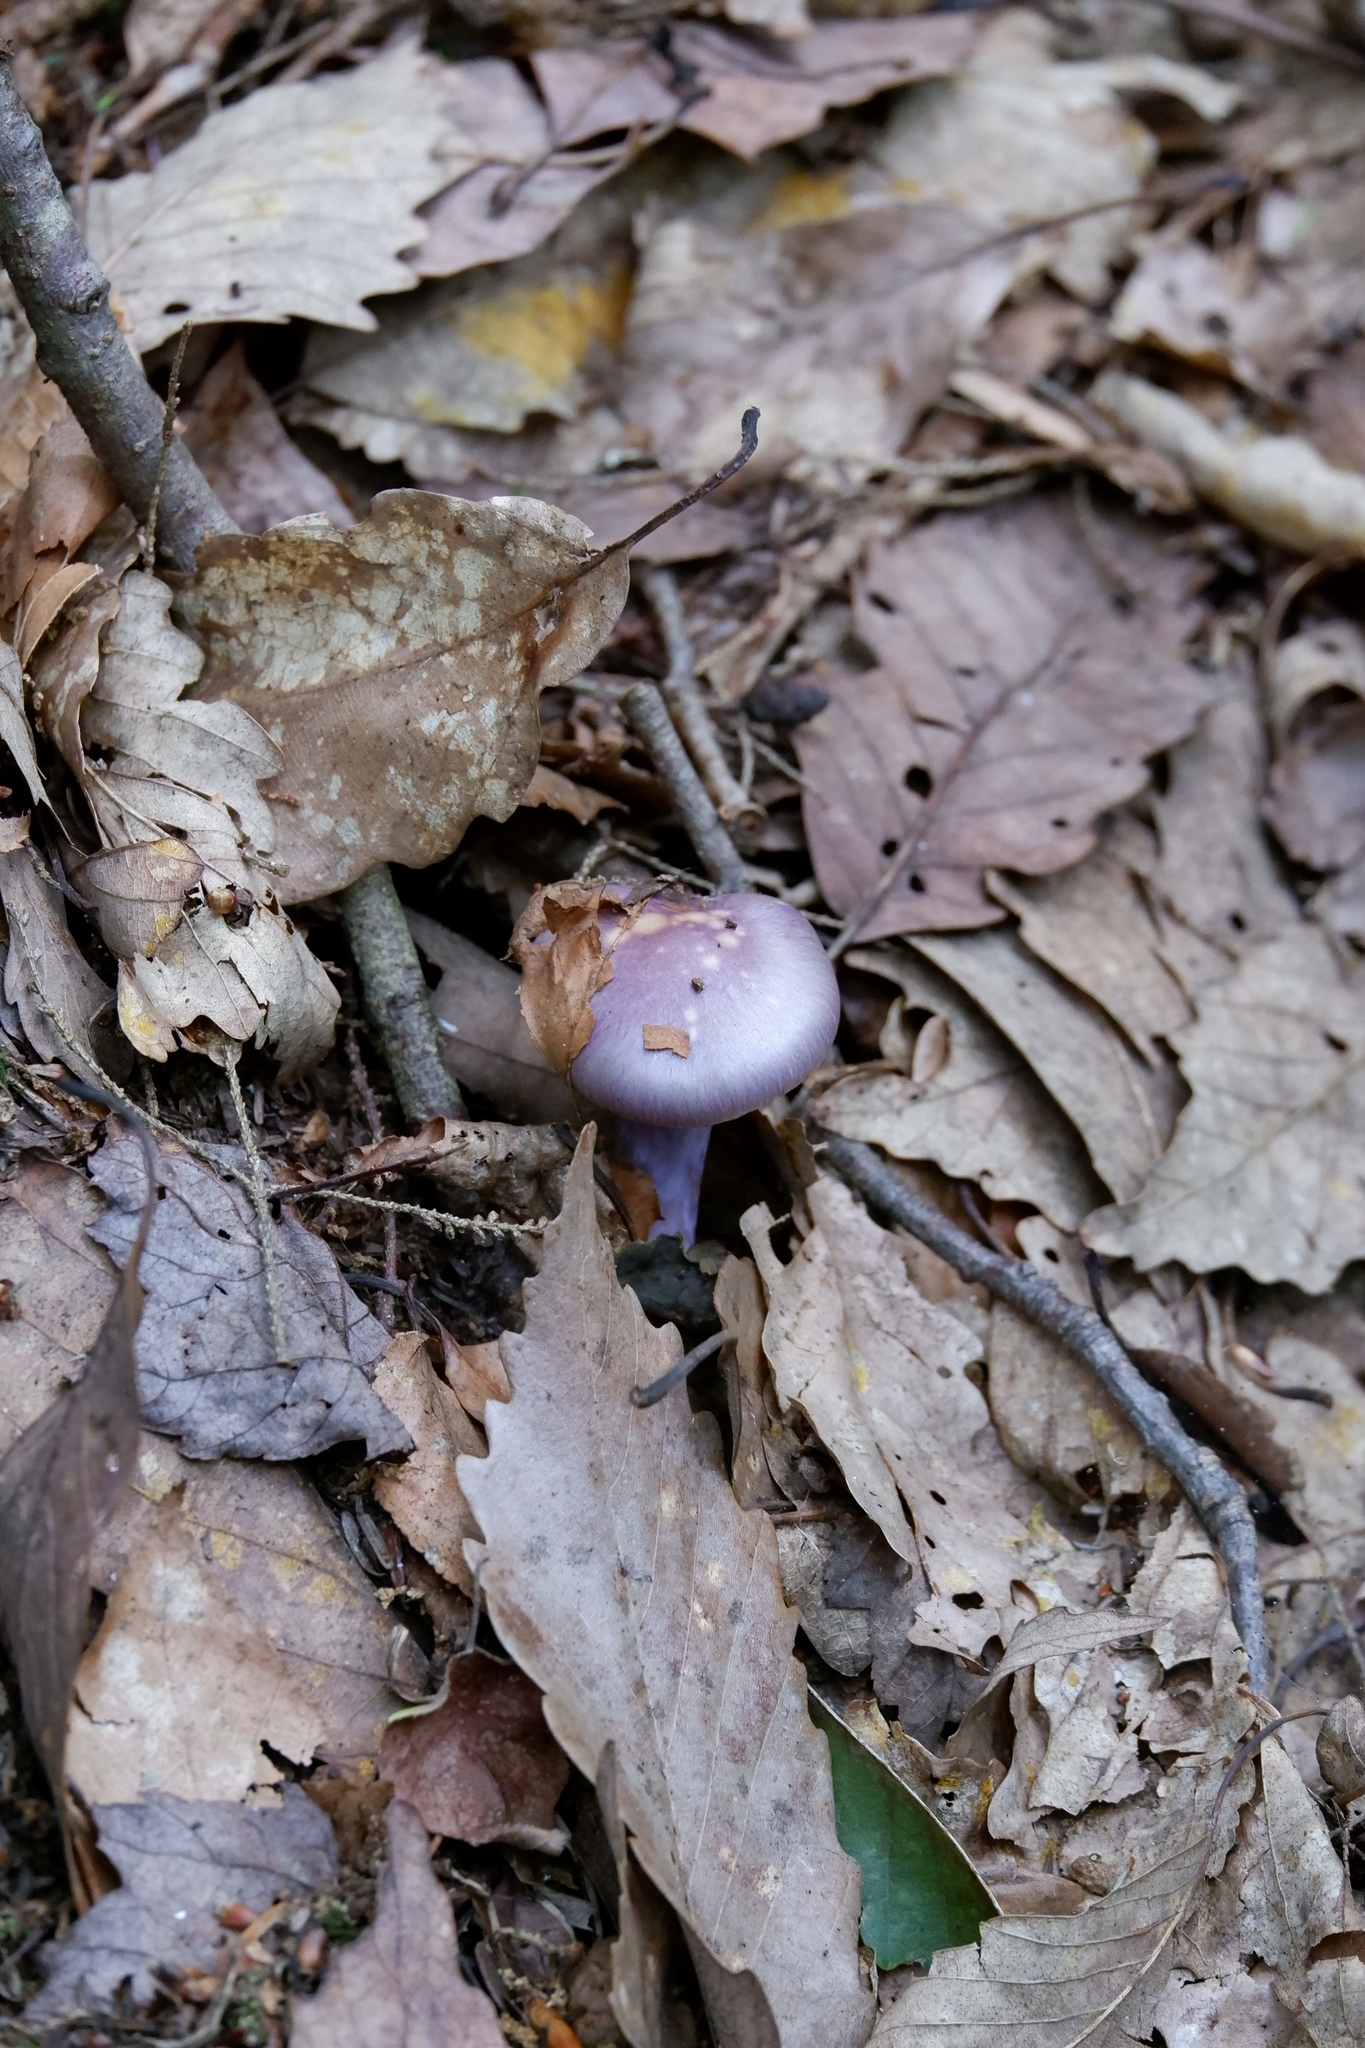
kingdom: Fungi
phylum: Basidiomycota
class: Agaricomycetes
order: Agaricales
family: Cortinariaceae
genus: Cortinarius
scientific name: Cortinarius iodes
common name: Viscid violet cort
